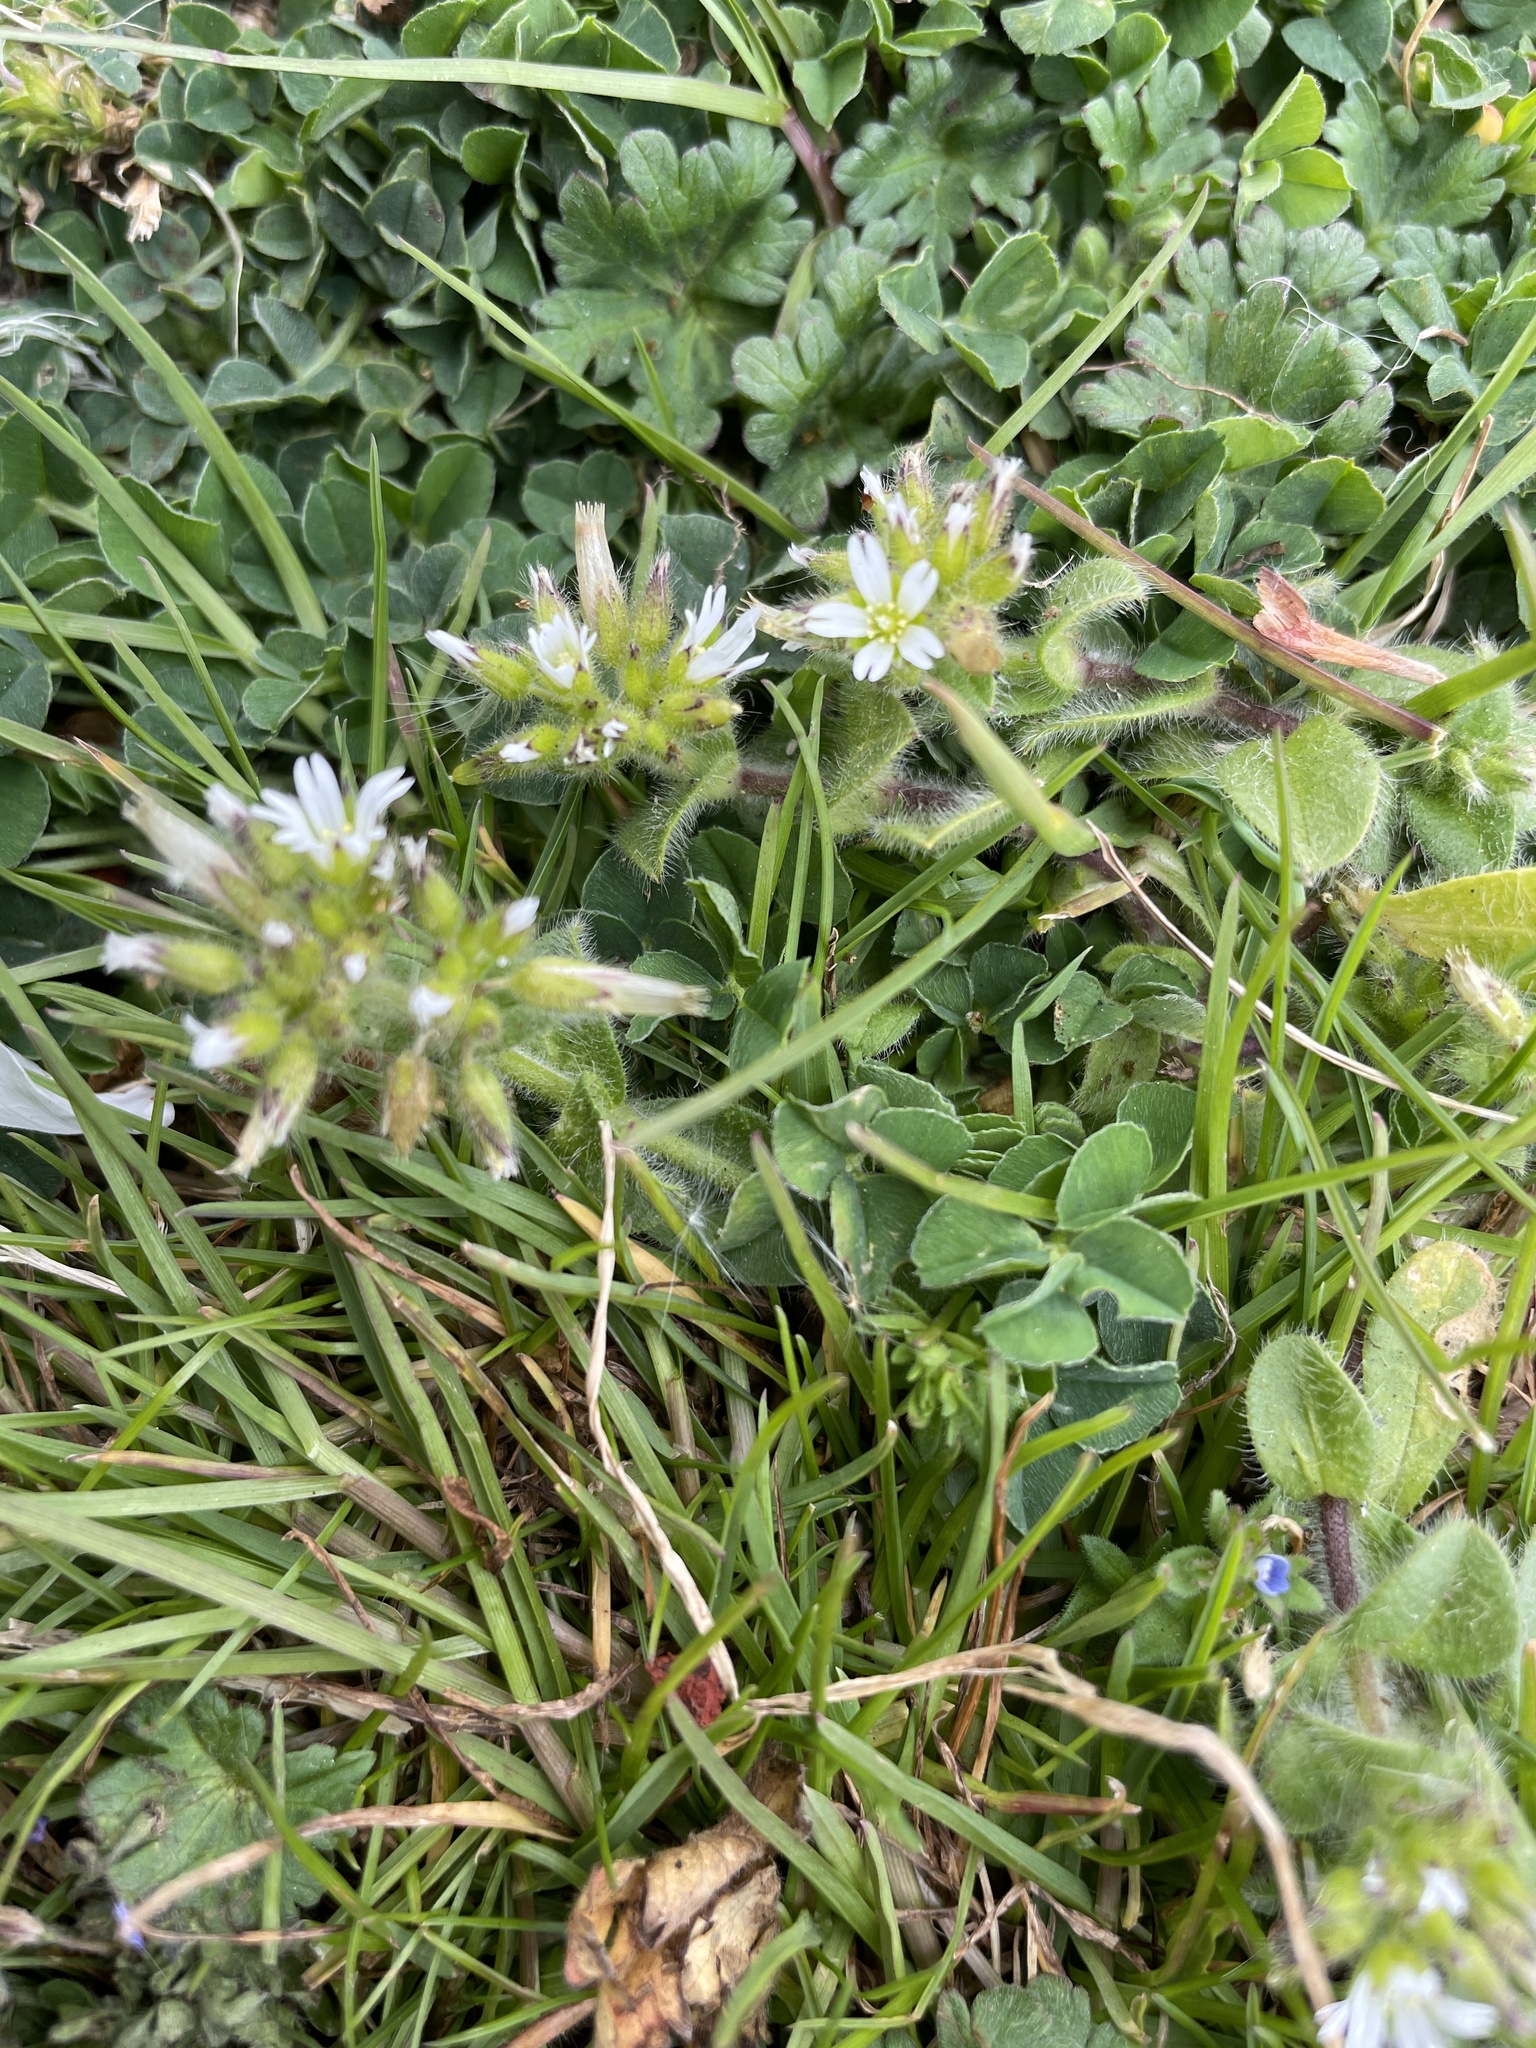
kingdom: Plantae
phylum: Tracheophyta
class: Magnoliopsida
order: Caryophyllales
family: Caryophyllaceae
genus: Cerastium
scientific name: Cerastium glomeratum
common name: Sticky chickweed
